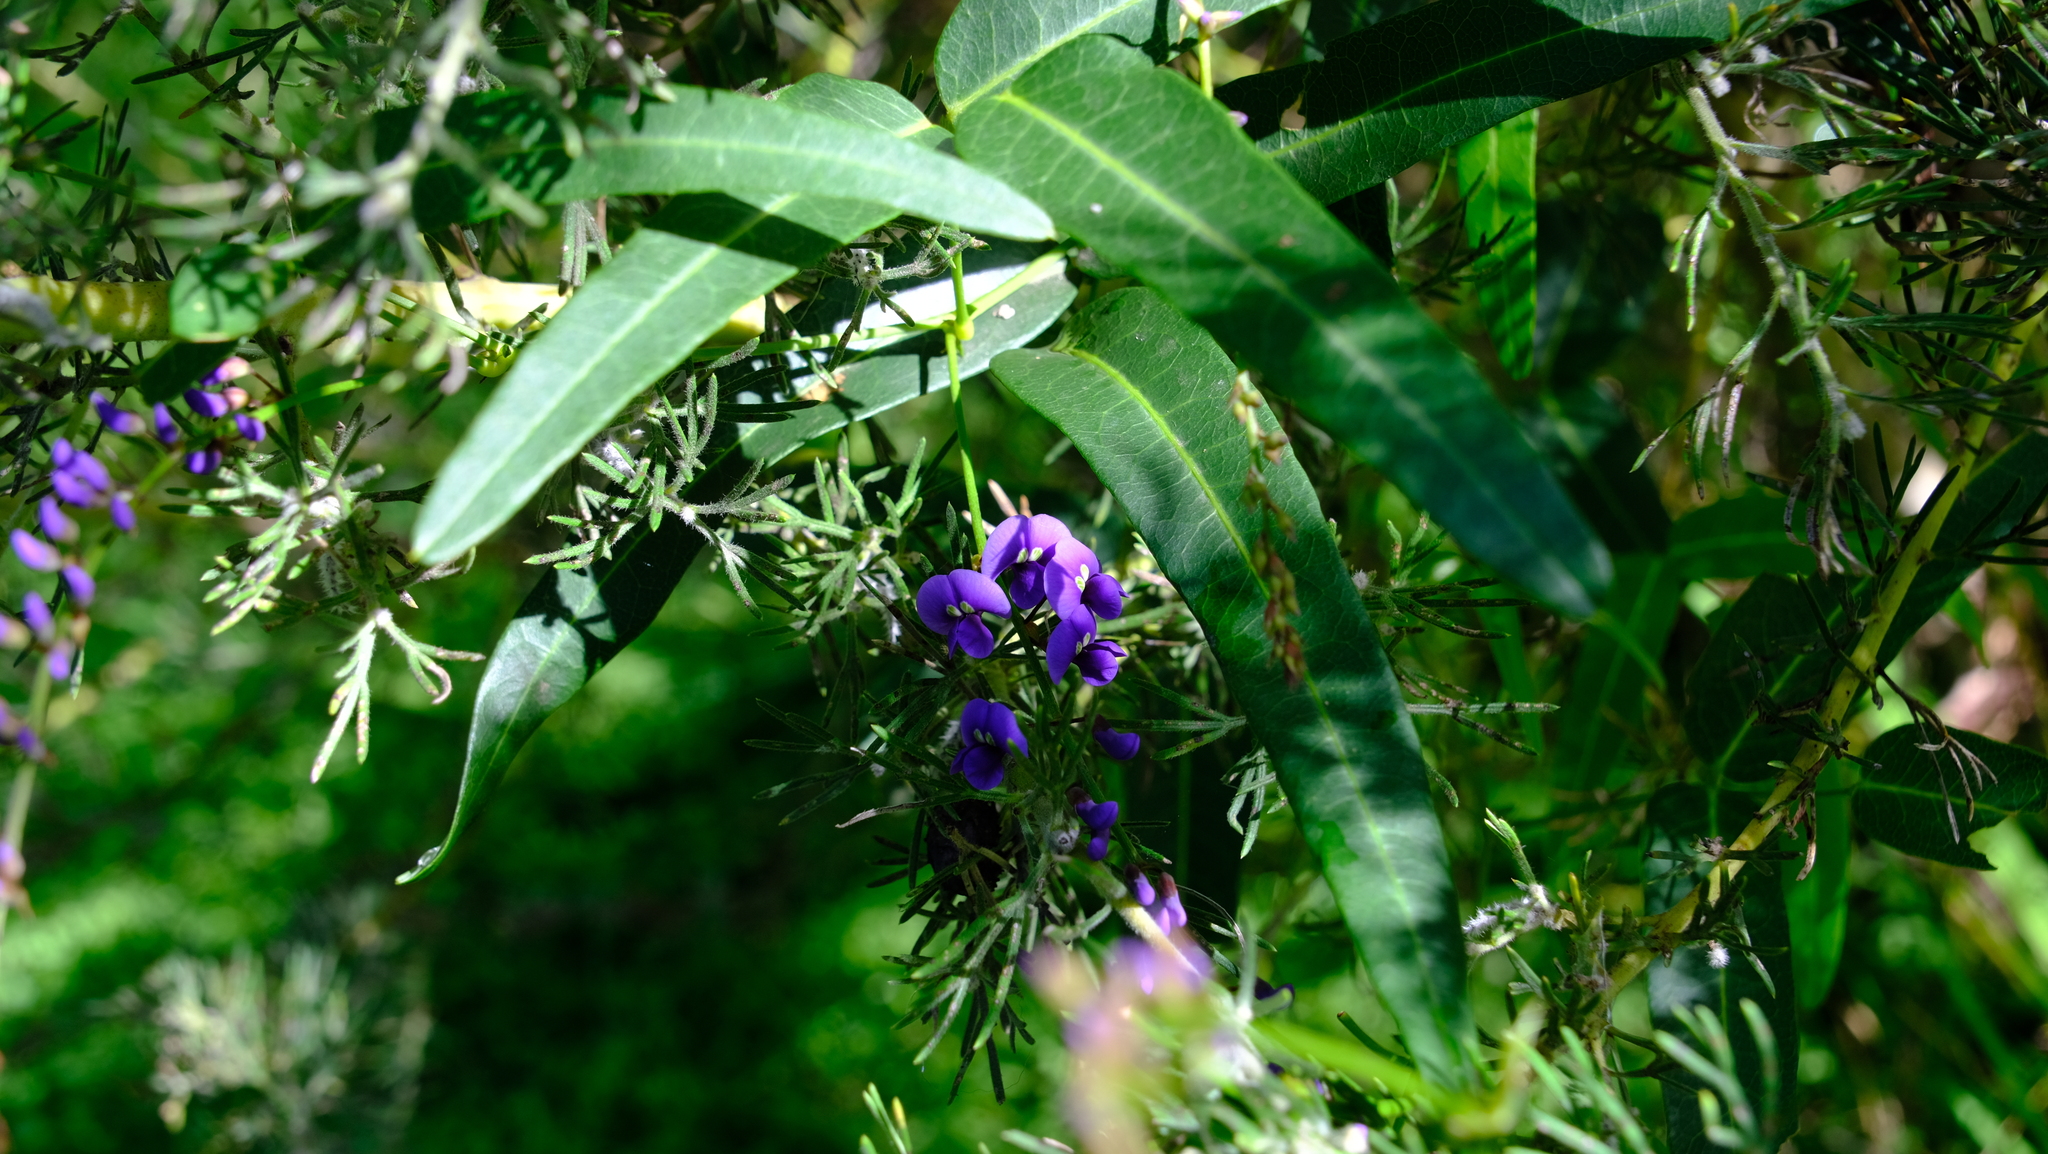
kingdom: Plantae
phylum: Tracheophyta
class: Magnoliopsida
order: Fabales
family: Fabaceae
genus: Hardenbergia
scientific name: Hardenbergia comptoniana
